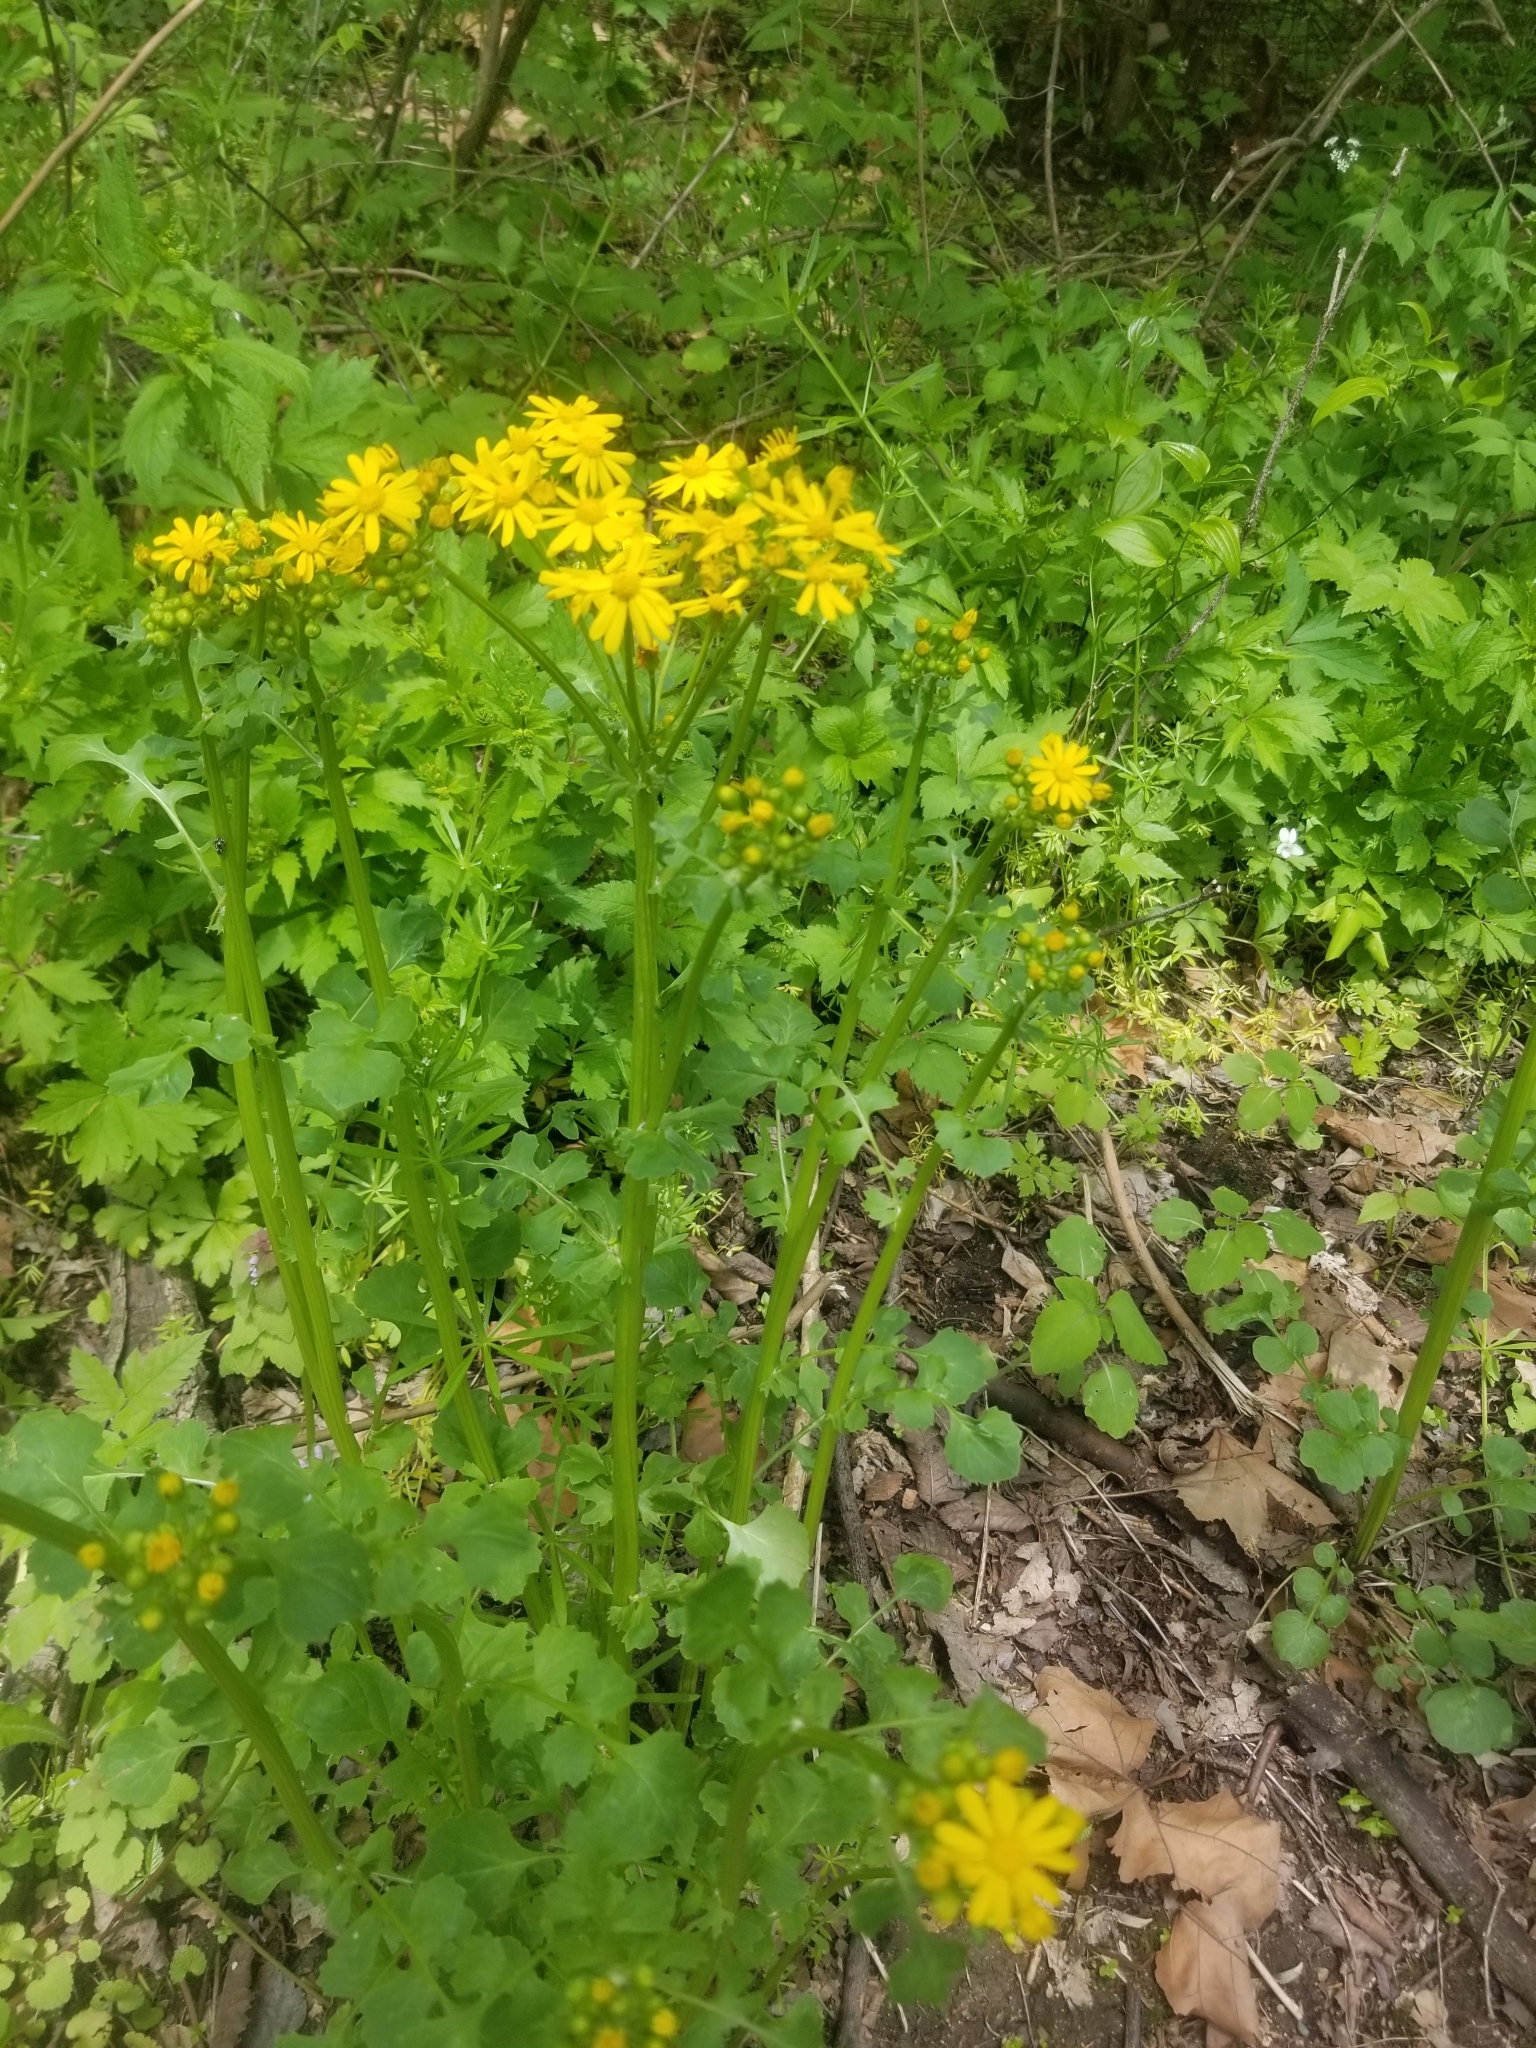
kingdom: Plantae
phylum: Tracheophyta
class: Magnoliopsida
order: Asterales
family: Asteraceae
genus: Packera
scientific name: Packera glabella
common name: Butterweed
